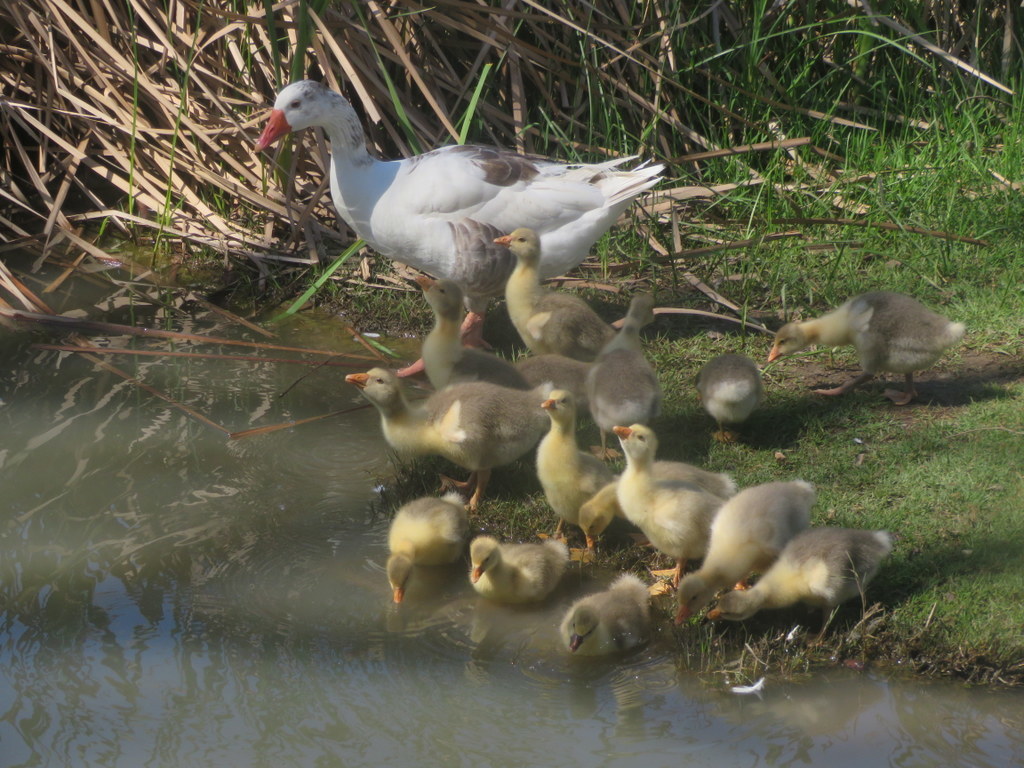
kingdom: Animalia
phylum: Chordata
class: Aves
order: Anseriformes
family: Anatidae
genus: Anser
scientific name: Anser anser
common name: Greylag goose
